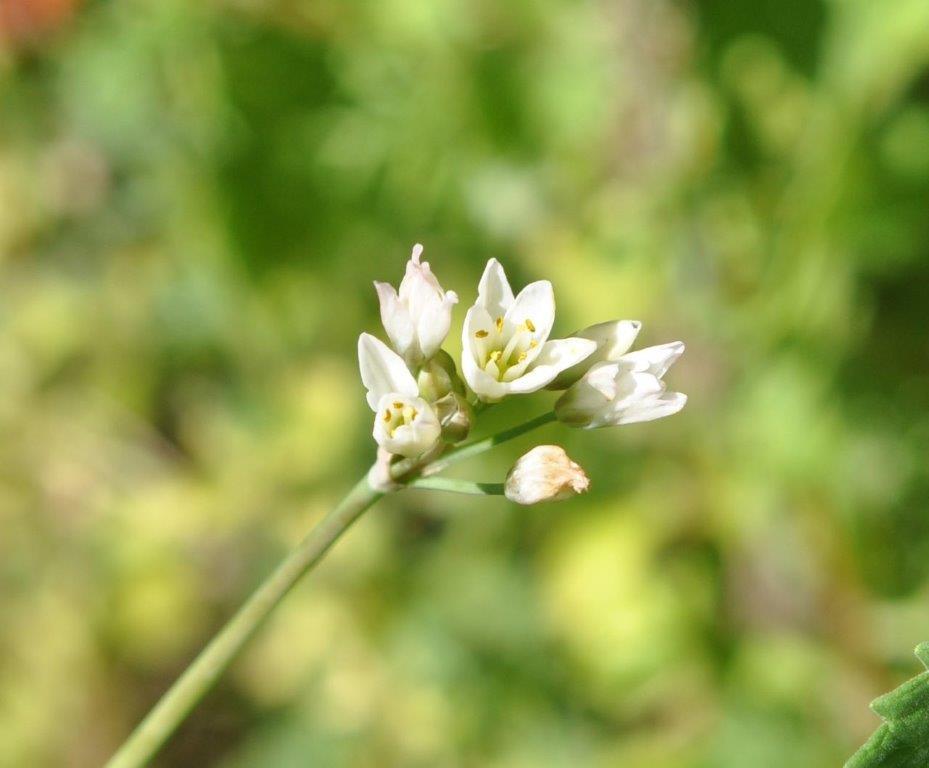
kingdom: Plantae
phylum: Tracheophyta
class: Liliopsida
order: Asparagales
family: Amaryllidaceae
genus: Nothoscordum
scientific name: Nothoscordum gracile
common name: Slender false garlic
